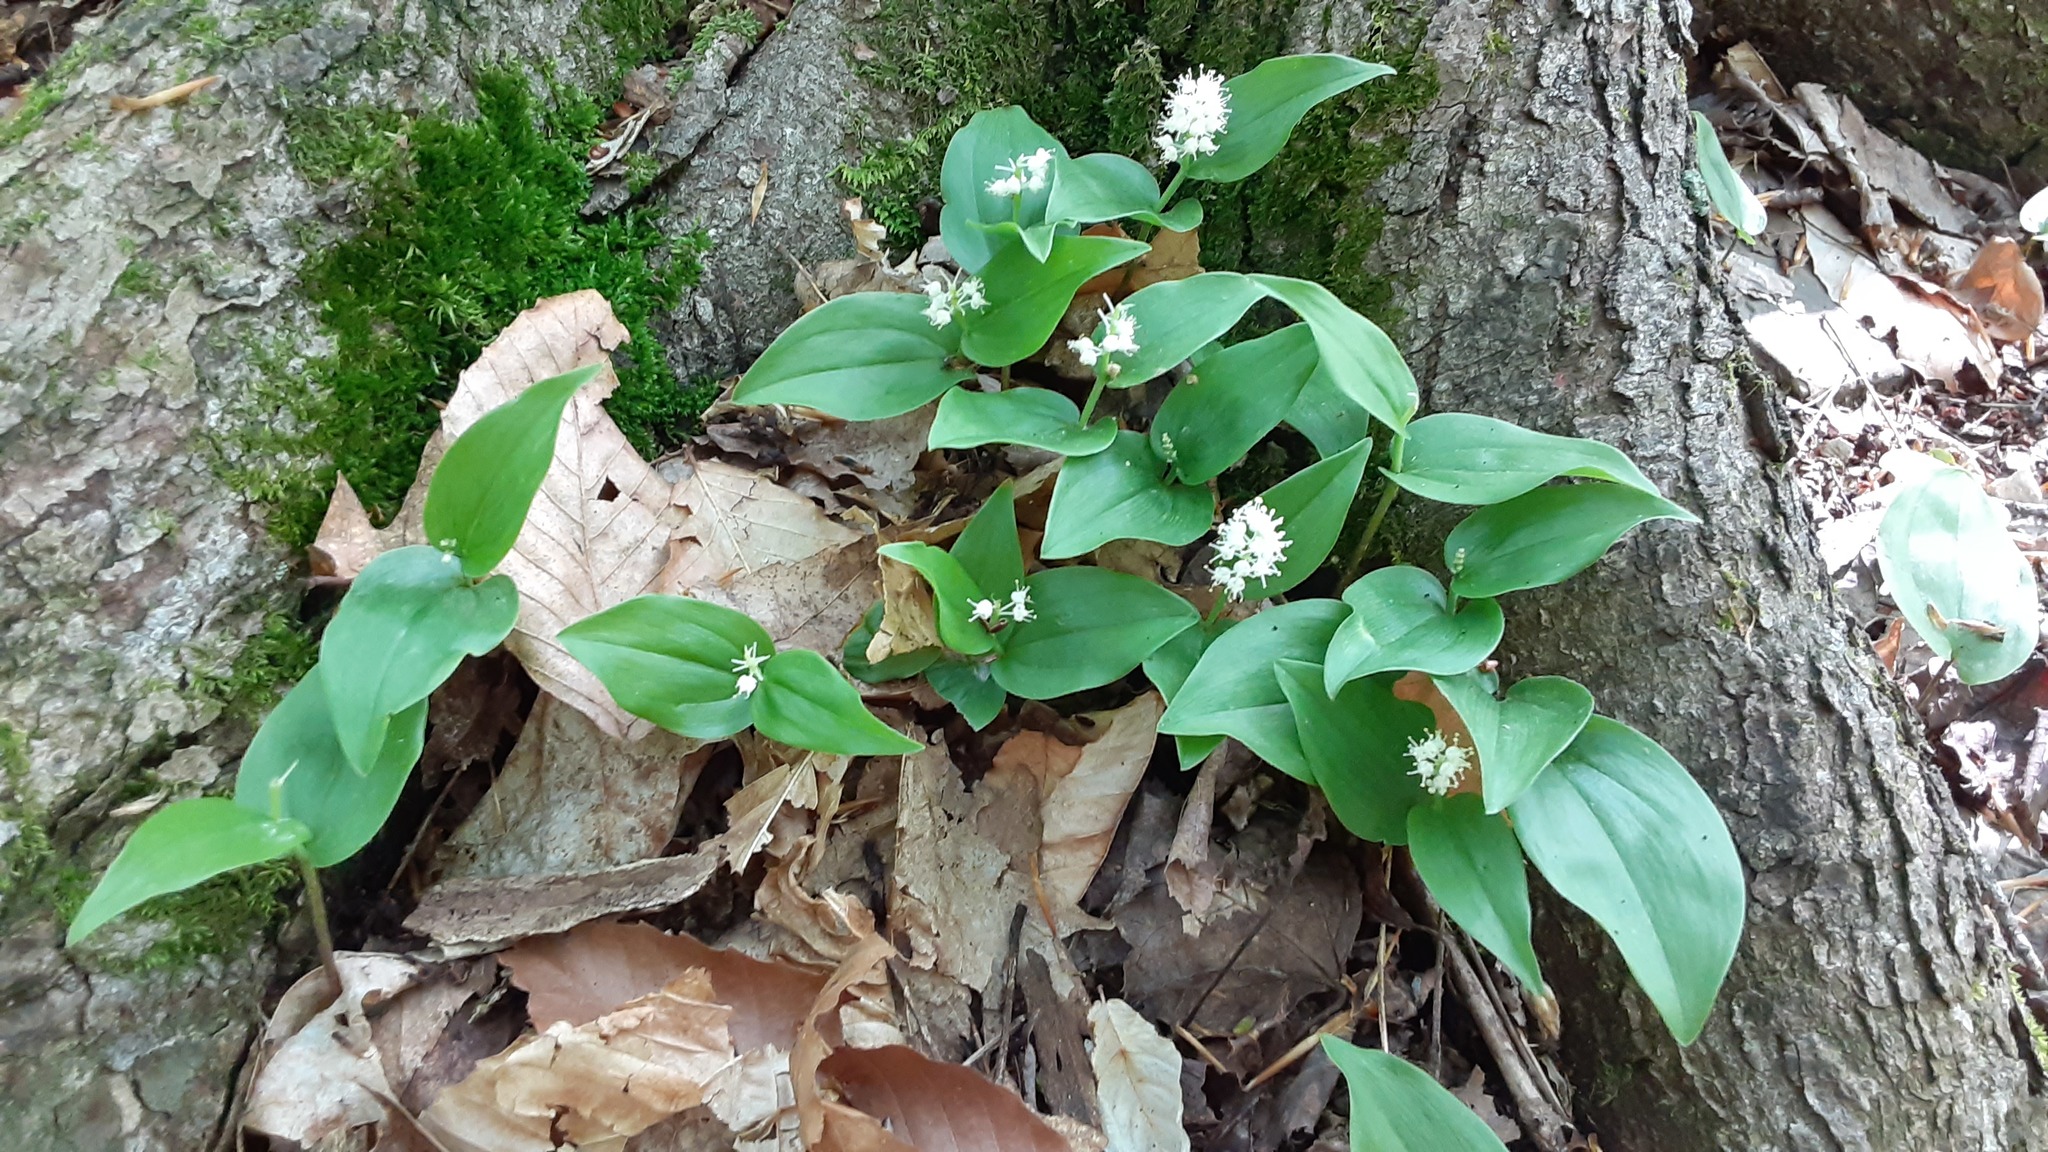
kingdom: Plantae
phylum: Tracheophyta
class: Liliopsida
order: Asparagales
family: Asparagaceae
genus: Maianthemum
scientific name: Maianthemum canadense
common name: False lily-of-the-valley
